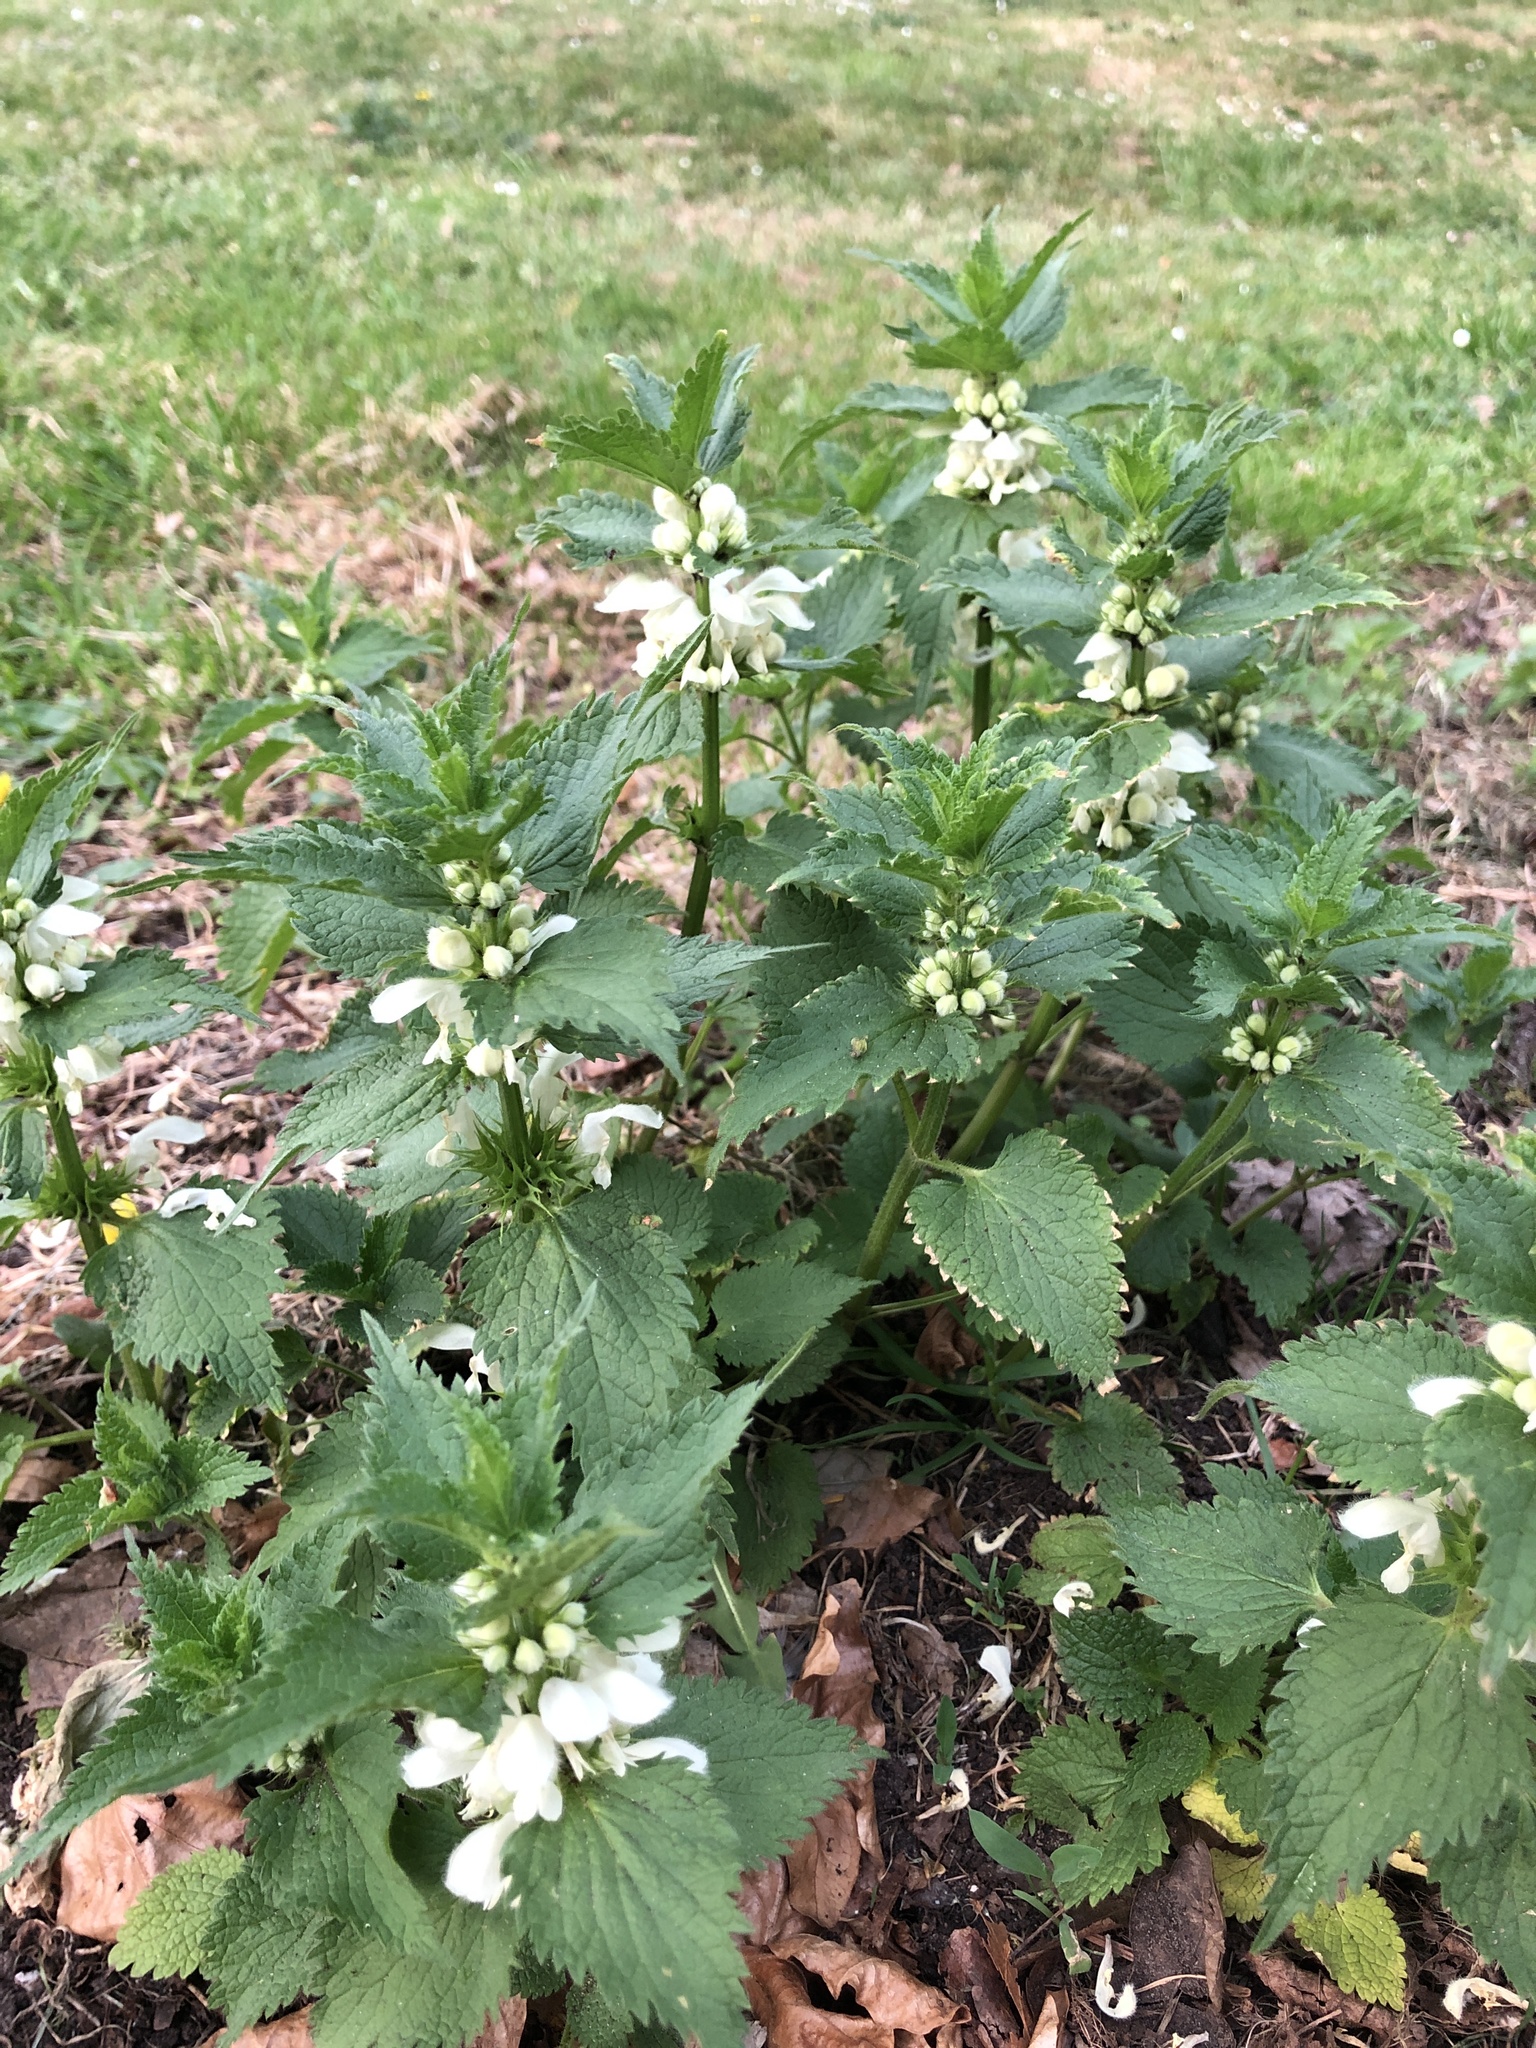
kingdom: Plantae
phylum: Tracheophyta
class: Magnoliopsida
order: Lamiales
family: Lamiaceae
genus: Lamium
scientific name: Lamium album
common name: White dead-nettle
